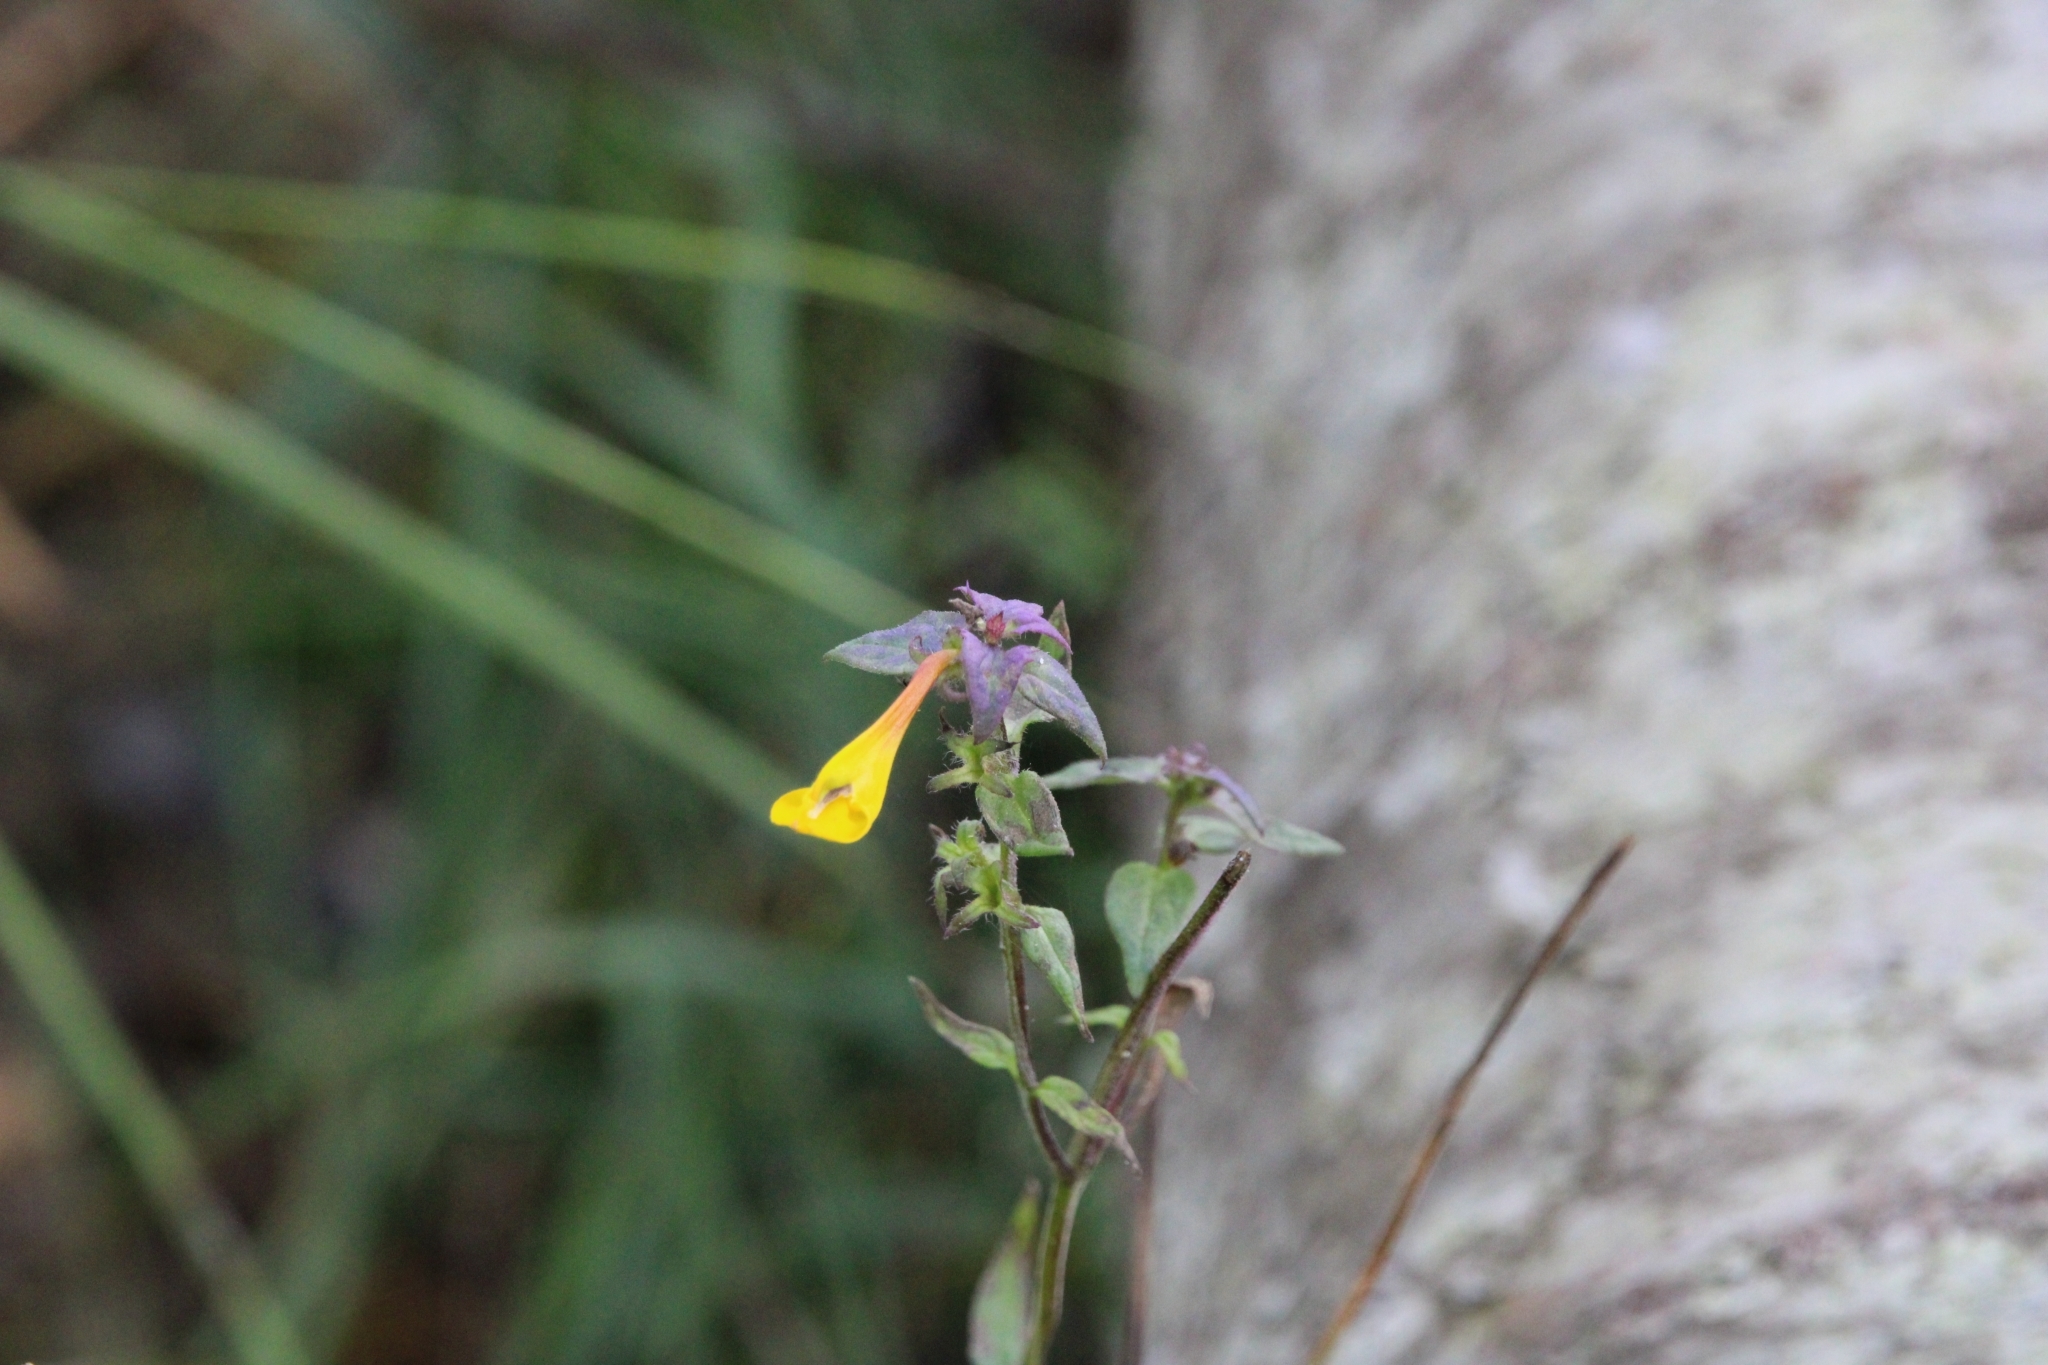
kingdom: Plantae
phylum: Tracheophyta
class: Magnoliopsida
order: Lamiales
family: Orobanchaceae
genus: Melampyrum
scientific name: Melampyrum nemorosum
